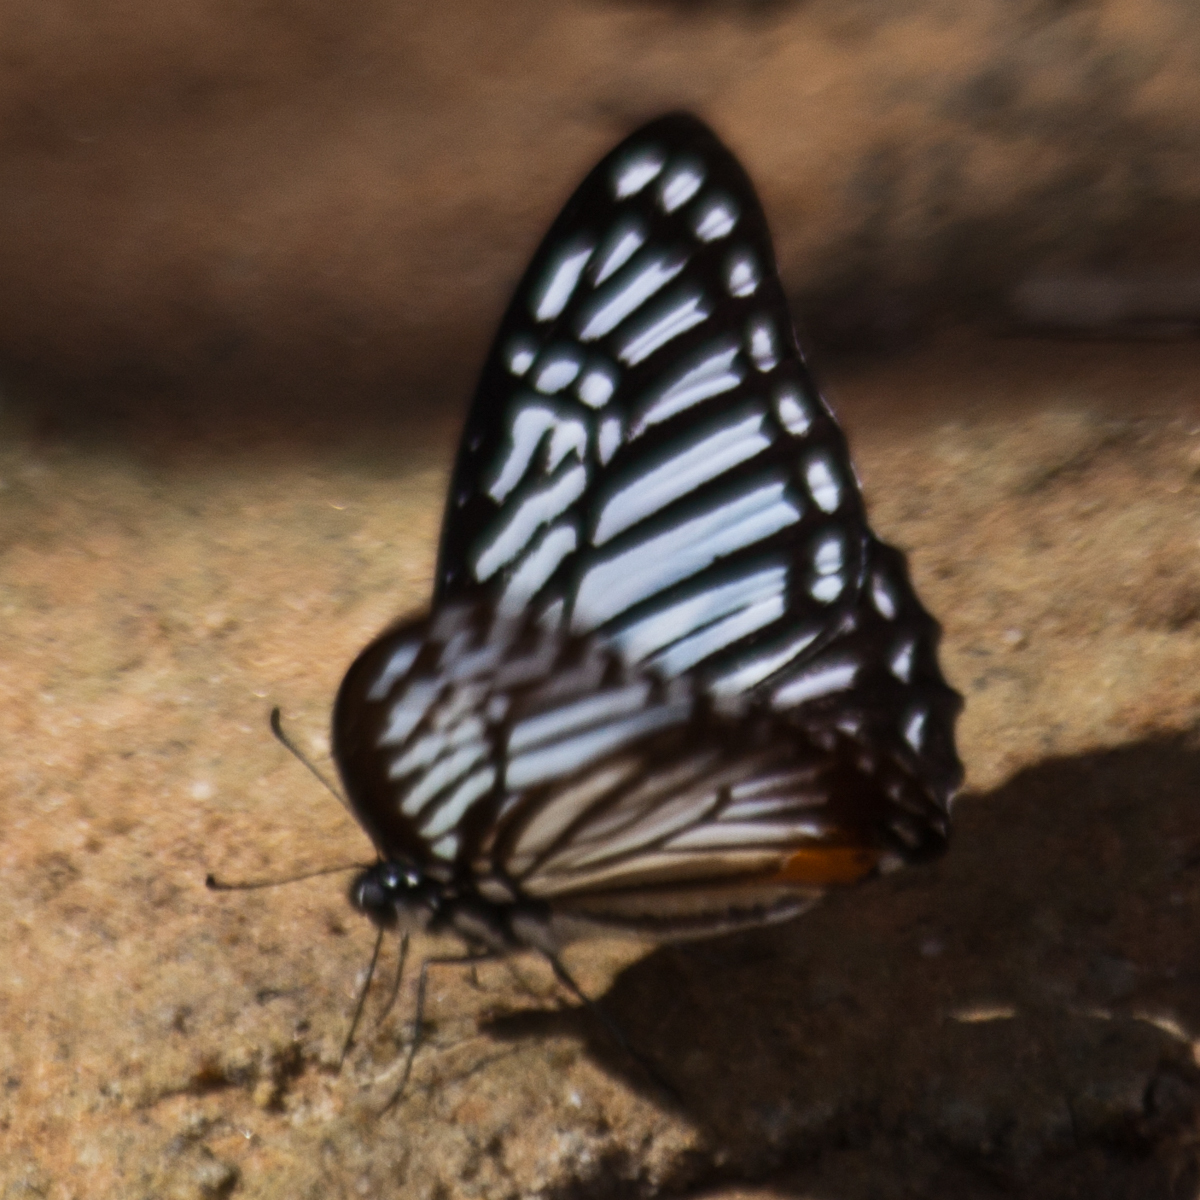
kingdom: Animalia
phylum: Arthropoda
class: Insecta
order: Lepidoptera
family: Papilionidae
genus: Graphium
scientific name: Graphium xenocles
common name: Great zebra
